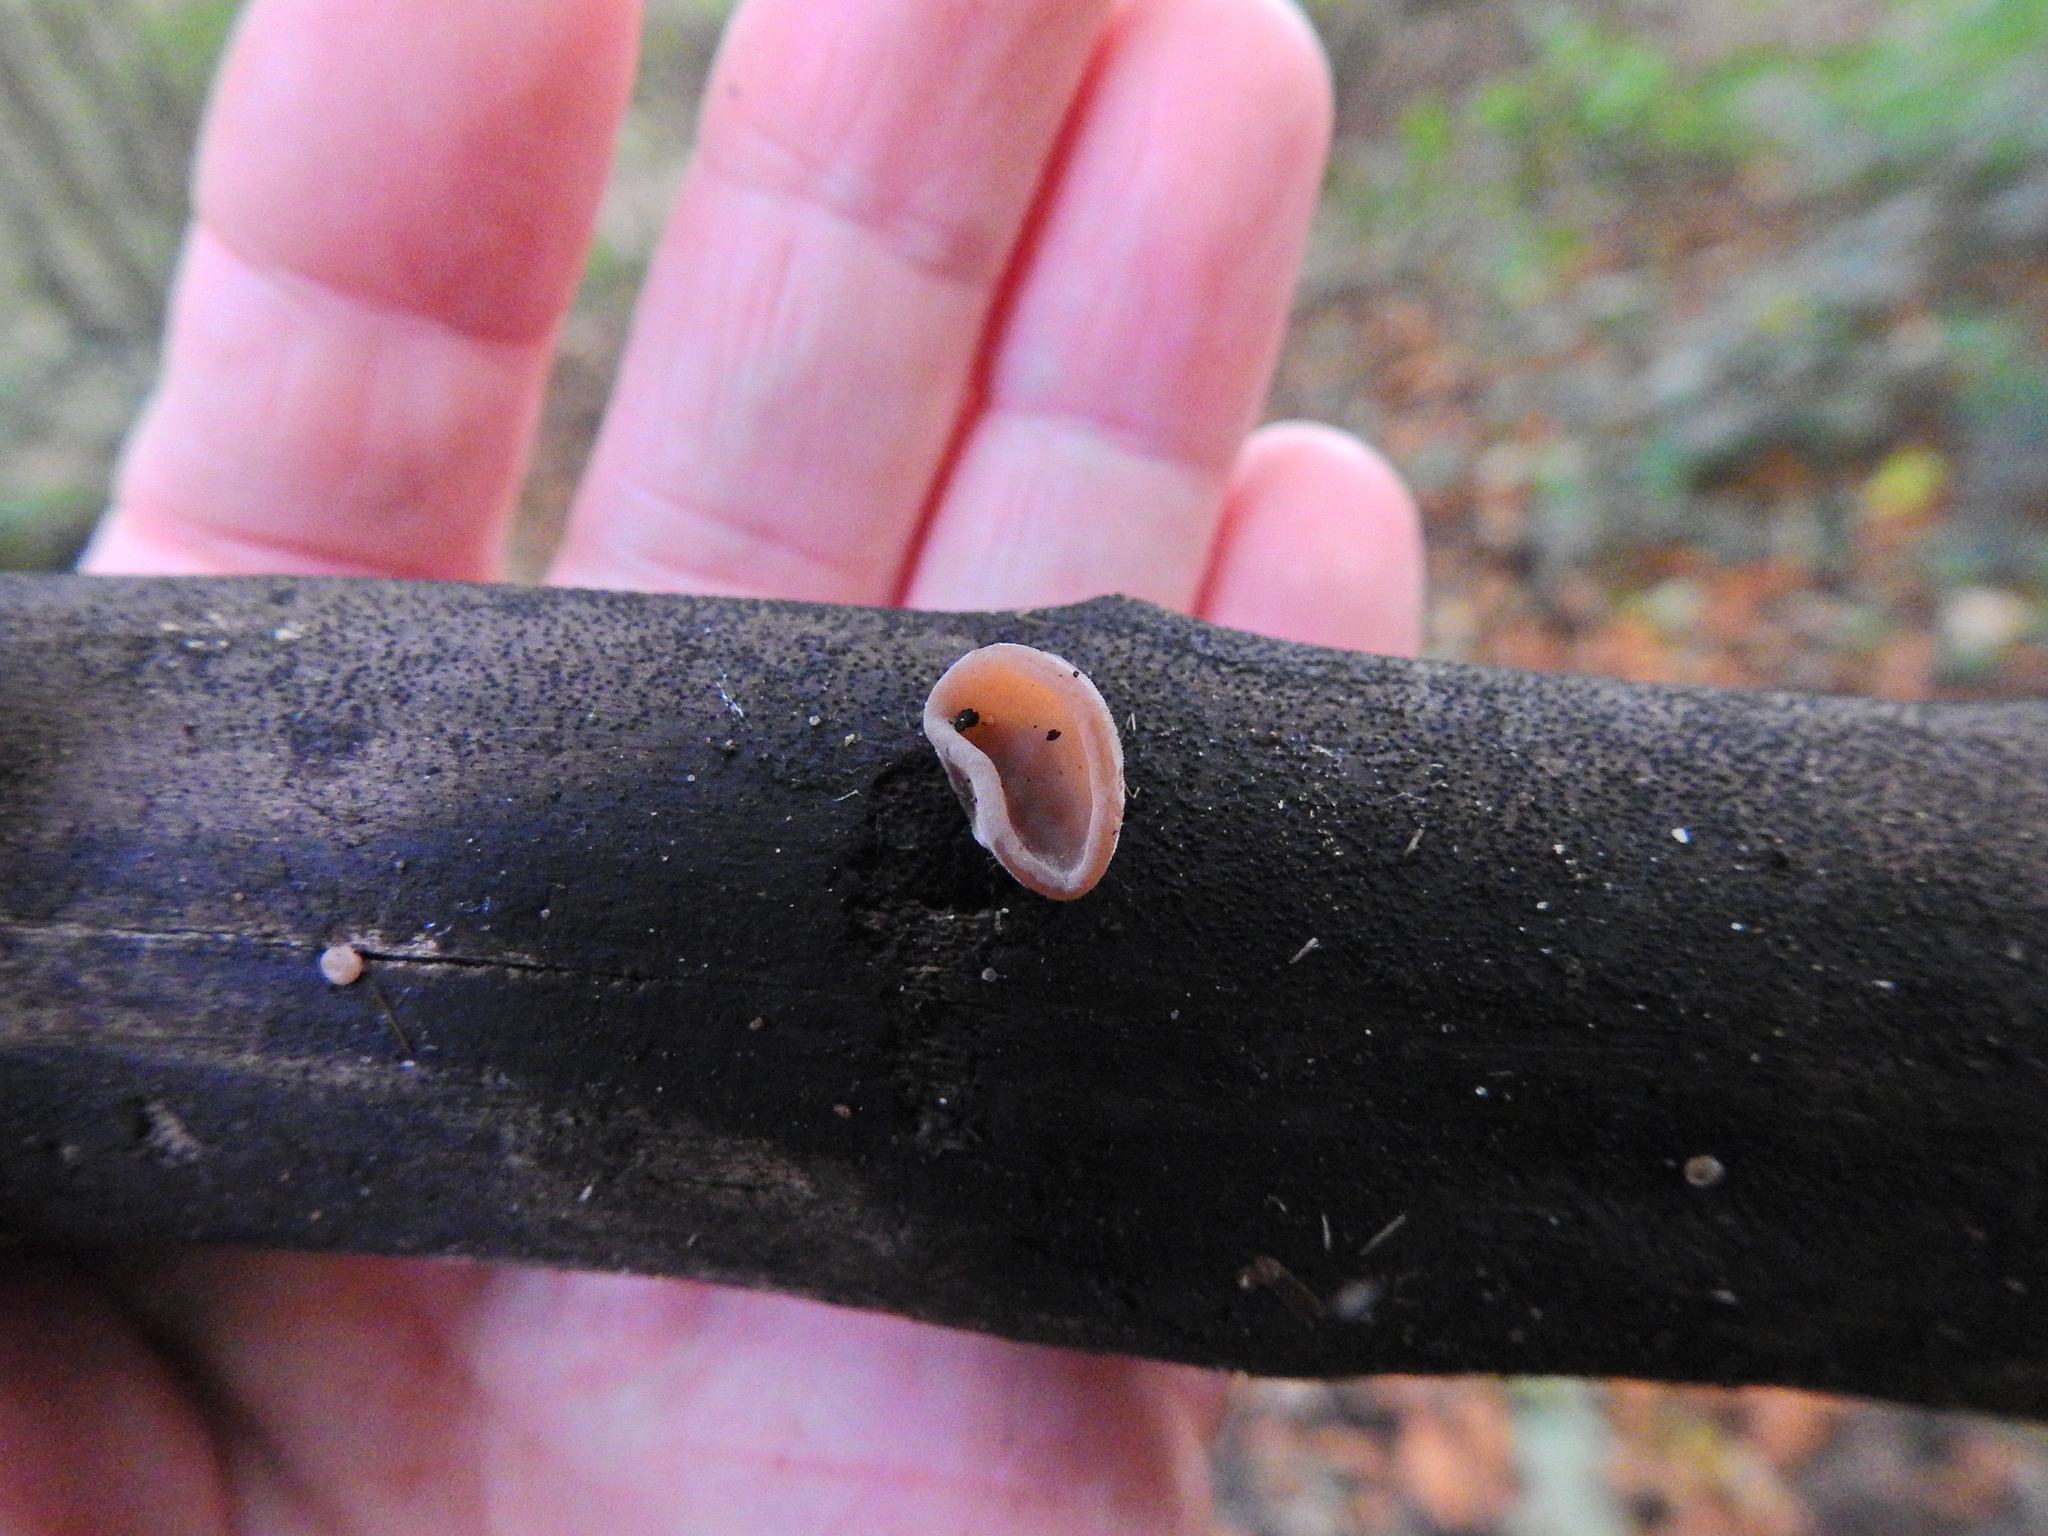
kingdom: Fungi
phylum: Basidiomycota
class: Agaricomycetes
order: Auriculariales
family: Auriculariaceae
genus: Auricularia
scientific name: Auricularia auricula-judae
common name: Jelly ear
